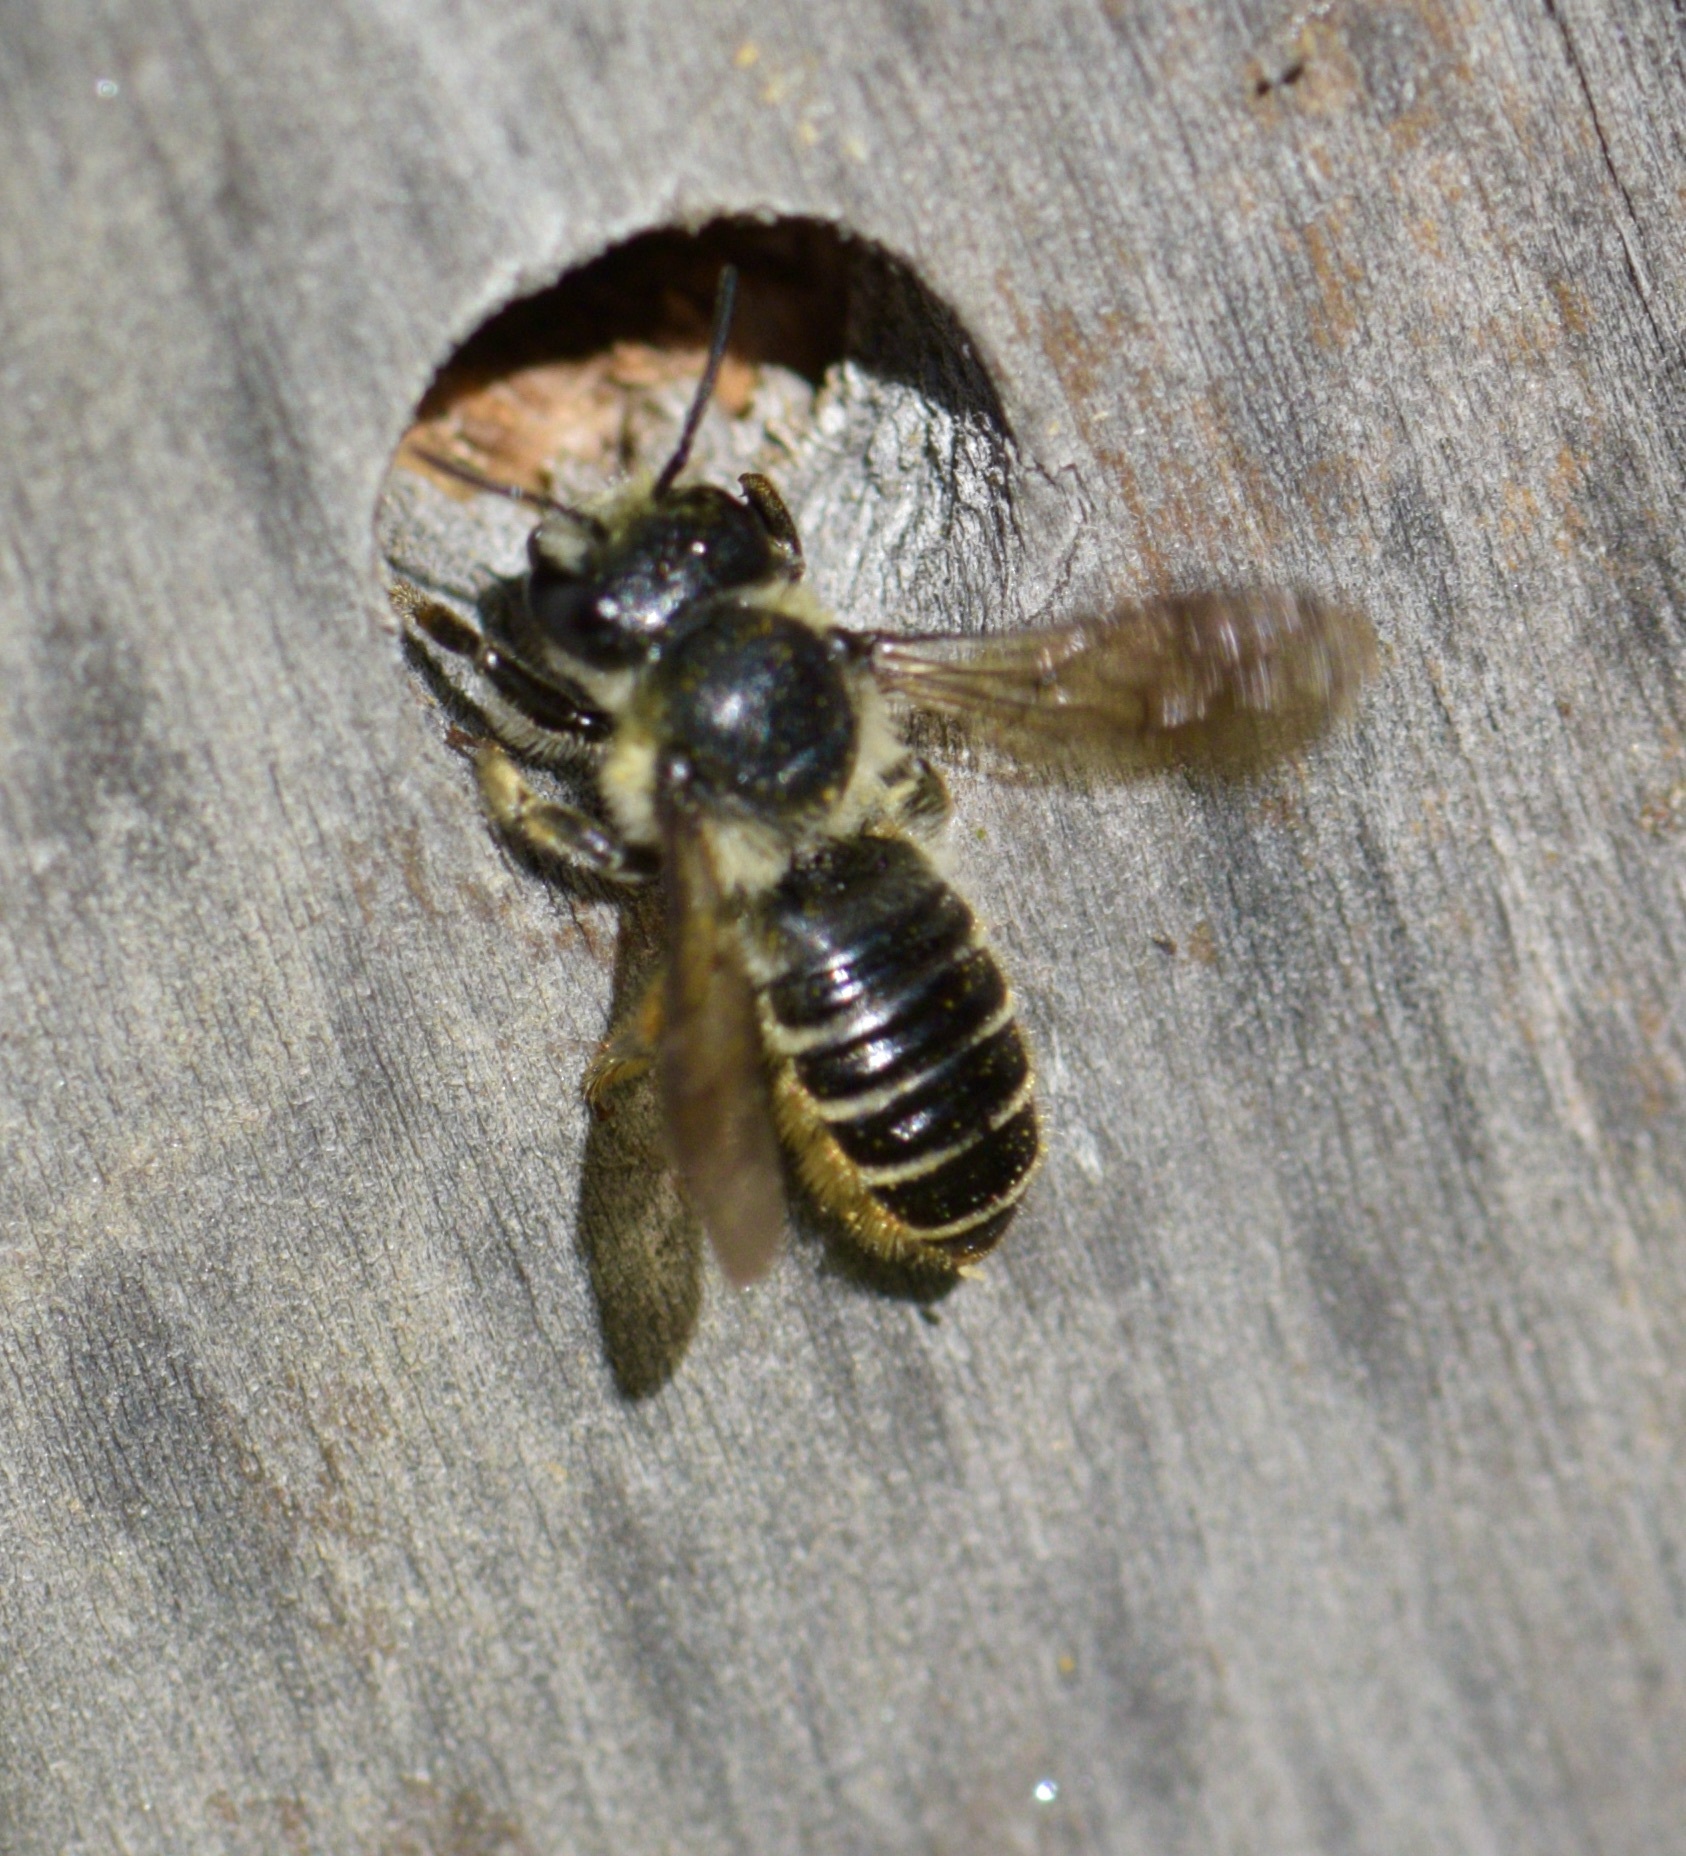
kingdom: Animalia
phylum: Arthropoda
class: Insecta
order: Hymenoptera
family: Megachilidae
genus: Megachile
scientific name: Megachile relativa
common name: Golden-tailed leafcutter
